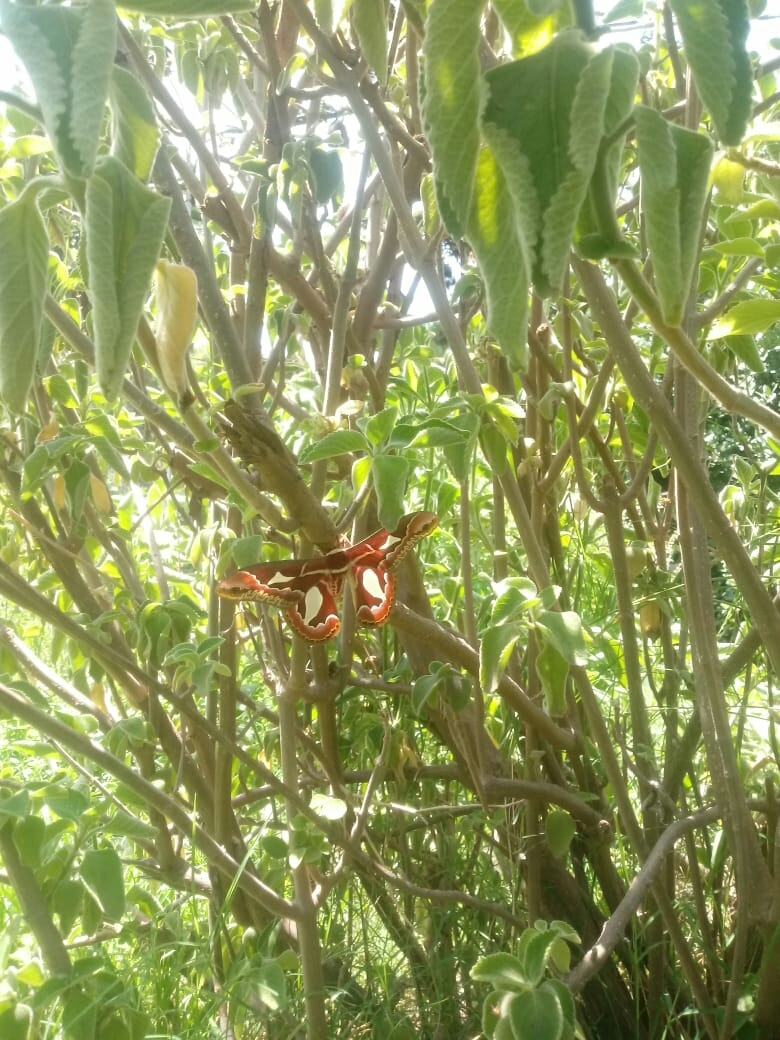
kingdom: Animalia
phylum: Arthropoda
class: Insecta
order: Lepidoptera
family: Saturniidae
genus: Rothschildia
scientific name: Rothschildia jacobaeae
